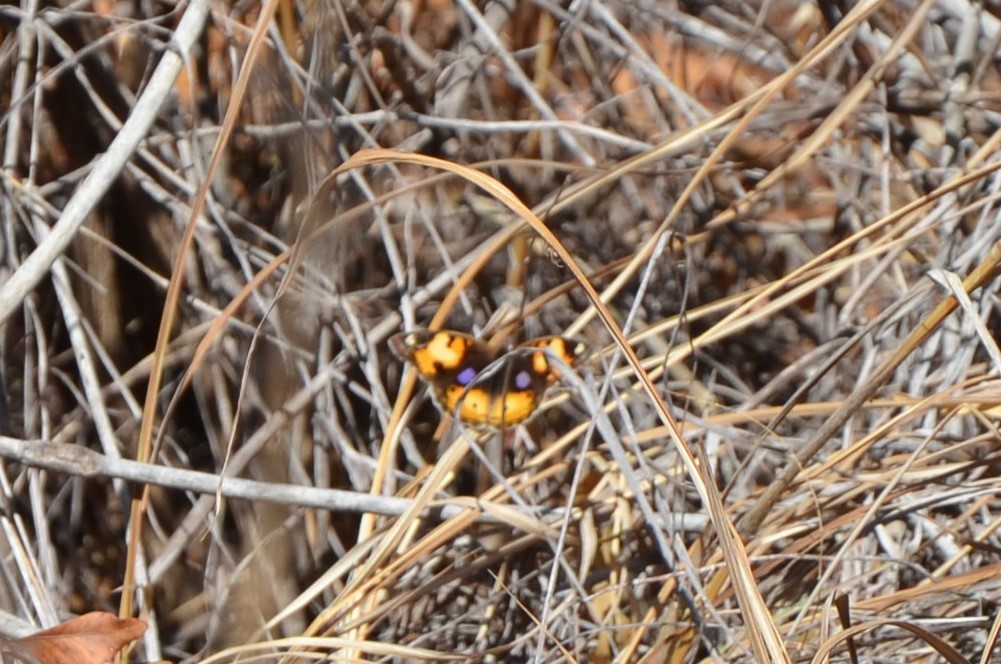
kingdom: Animalia
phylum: Arthropoda
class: Insecta
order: Lepidoptera
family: Nymphalidae
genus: Junonia
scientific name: Junonia hierta
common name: Yellow pansy
